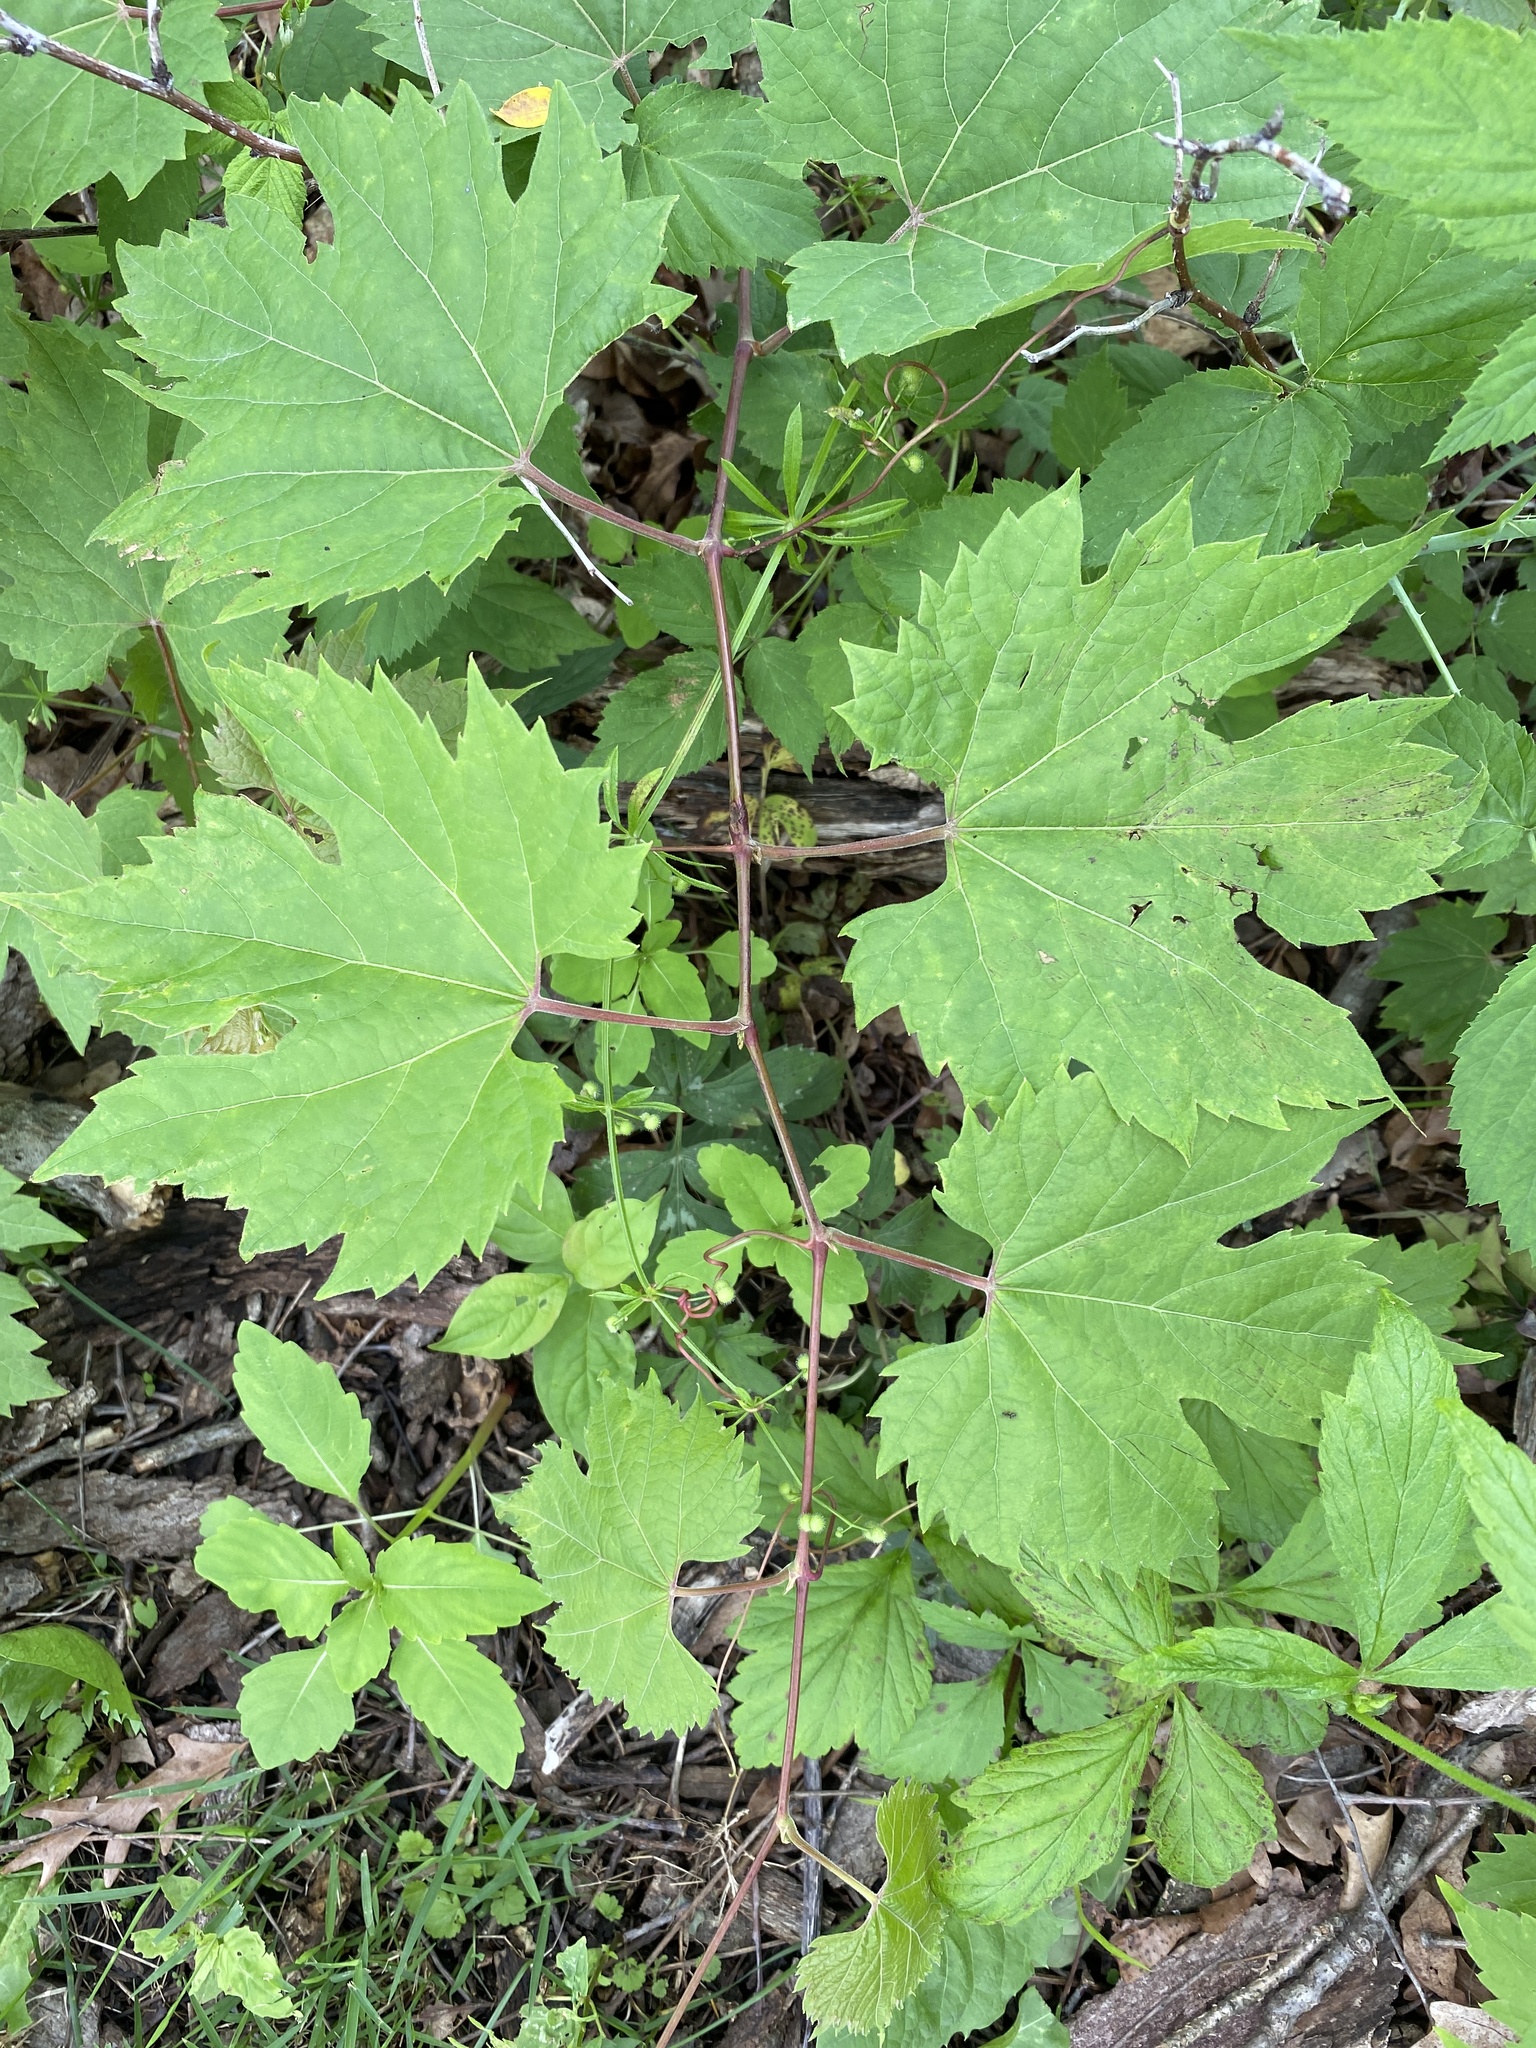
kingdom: Plantae
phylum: Tracheophyta
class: Magnoliopsida
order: Vitales
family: Vitaceae
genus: Vitis
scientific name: Vitis riparia
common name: Frost grape
